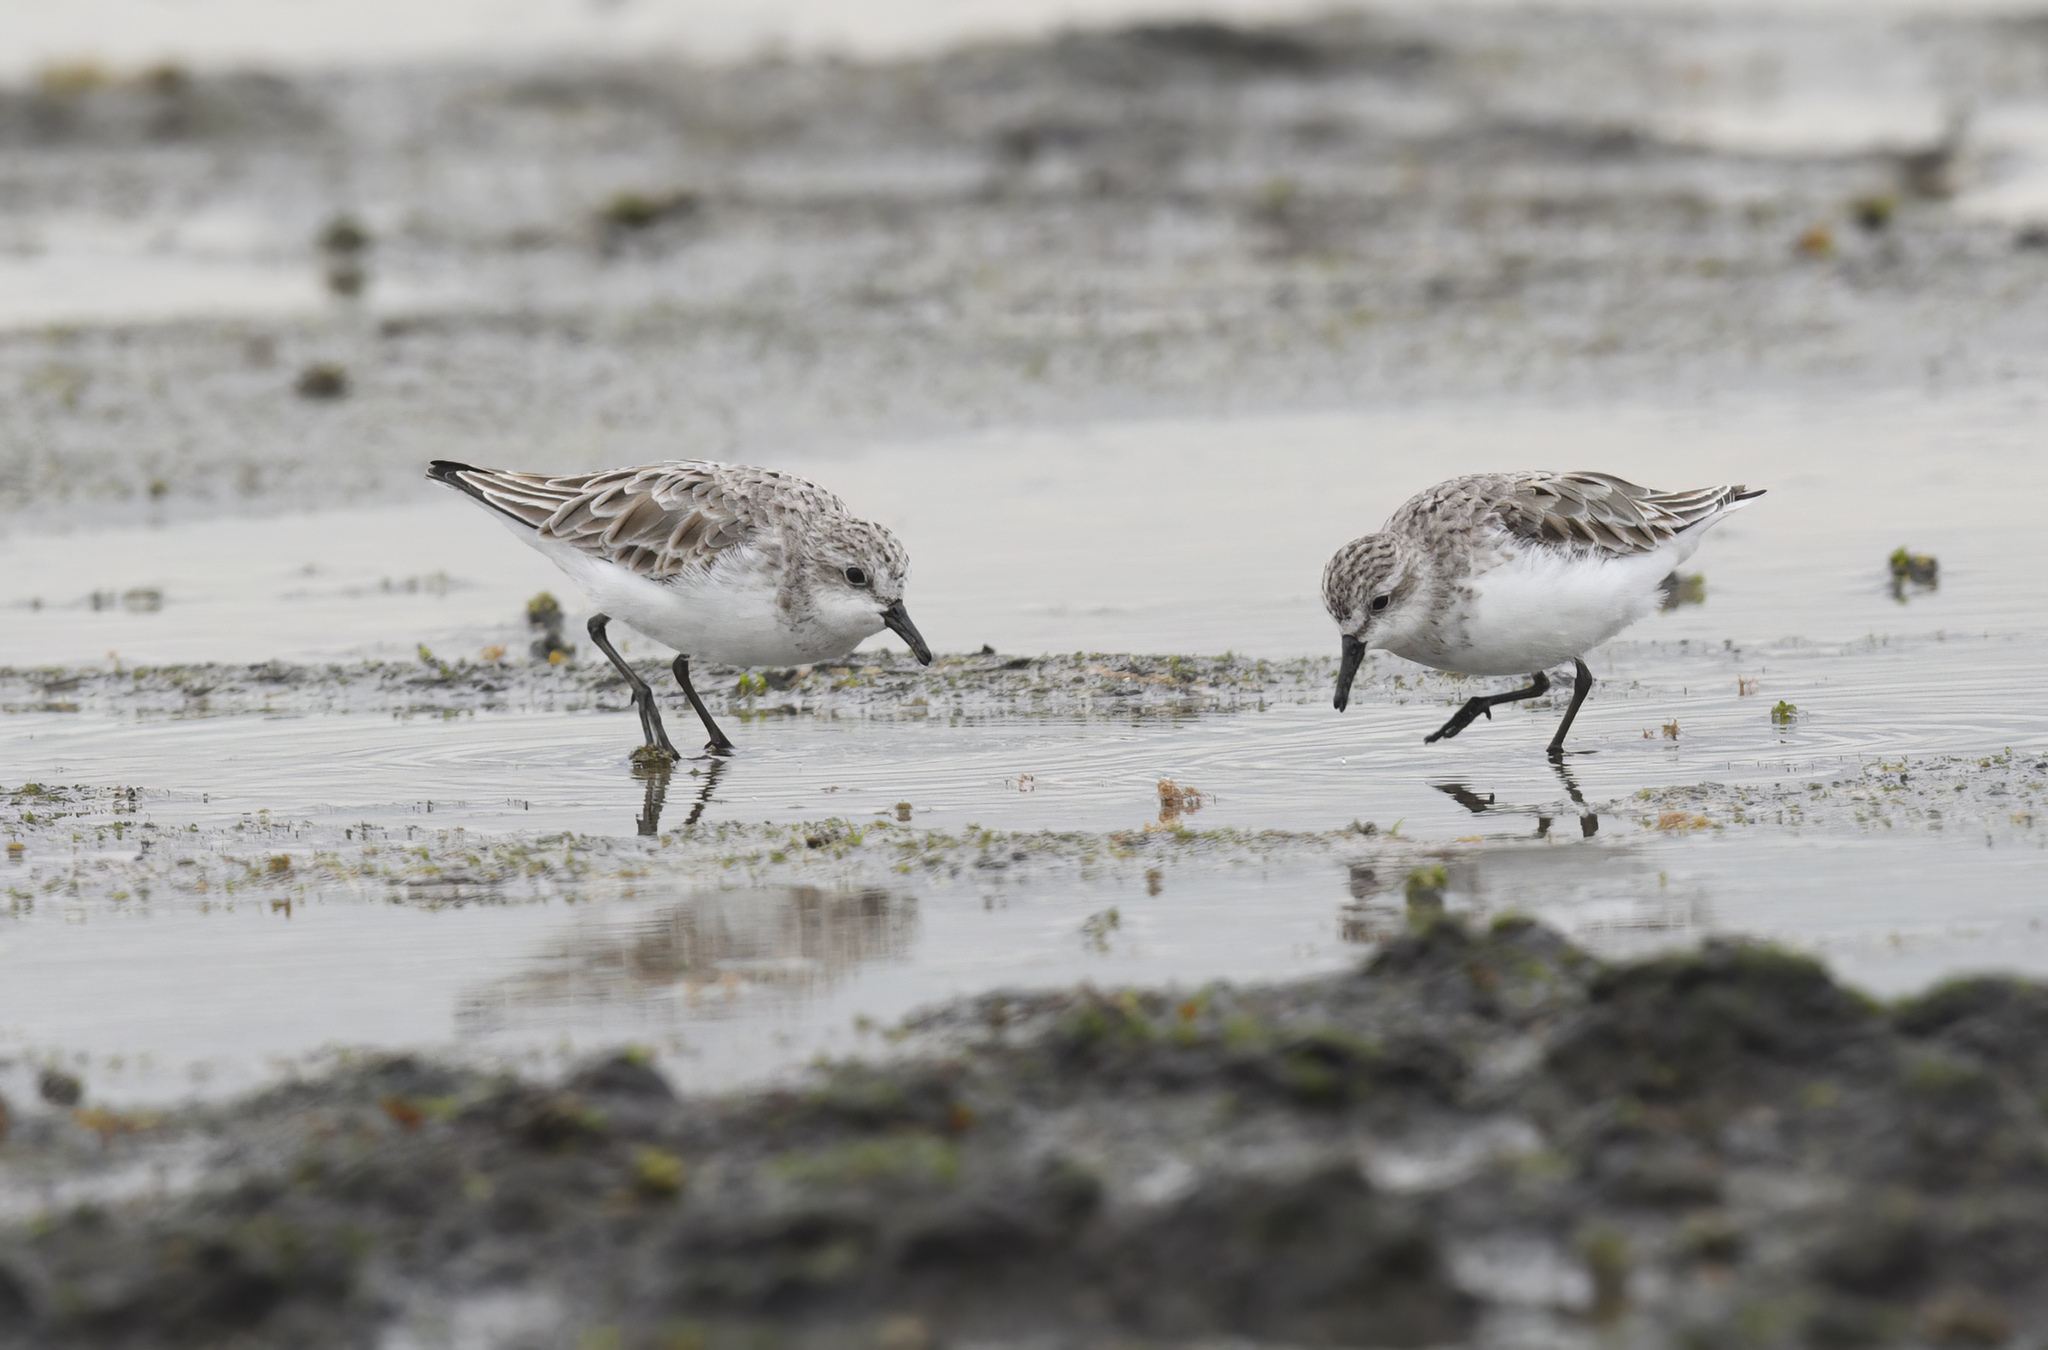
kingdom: Animalia
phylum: Chordata
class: Aves
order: Charadriiformes
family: Scolopacidae
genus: Calidris
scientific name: Calidris ruficollis
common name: Red-necked stint
